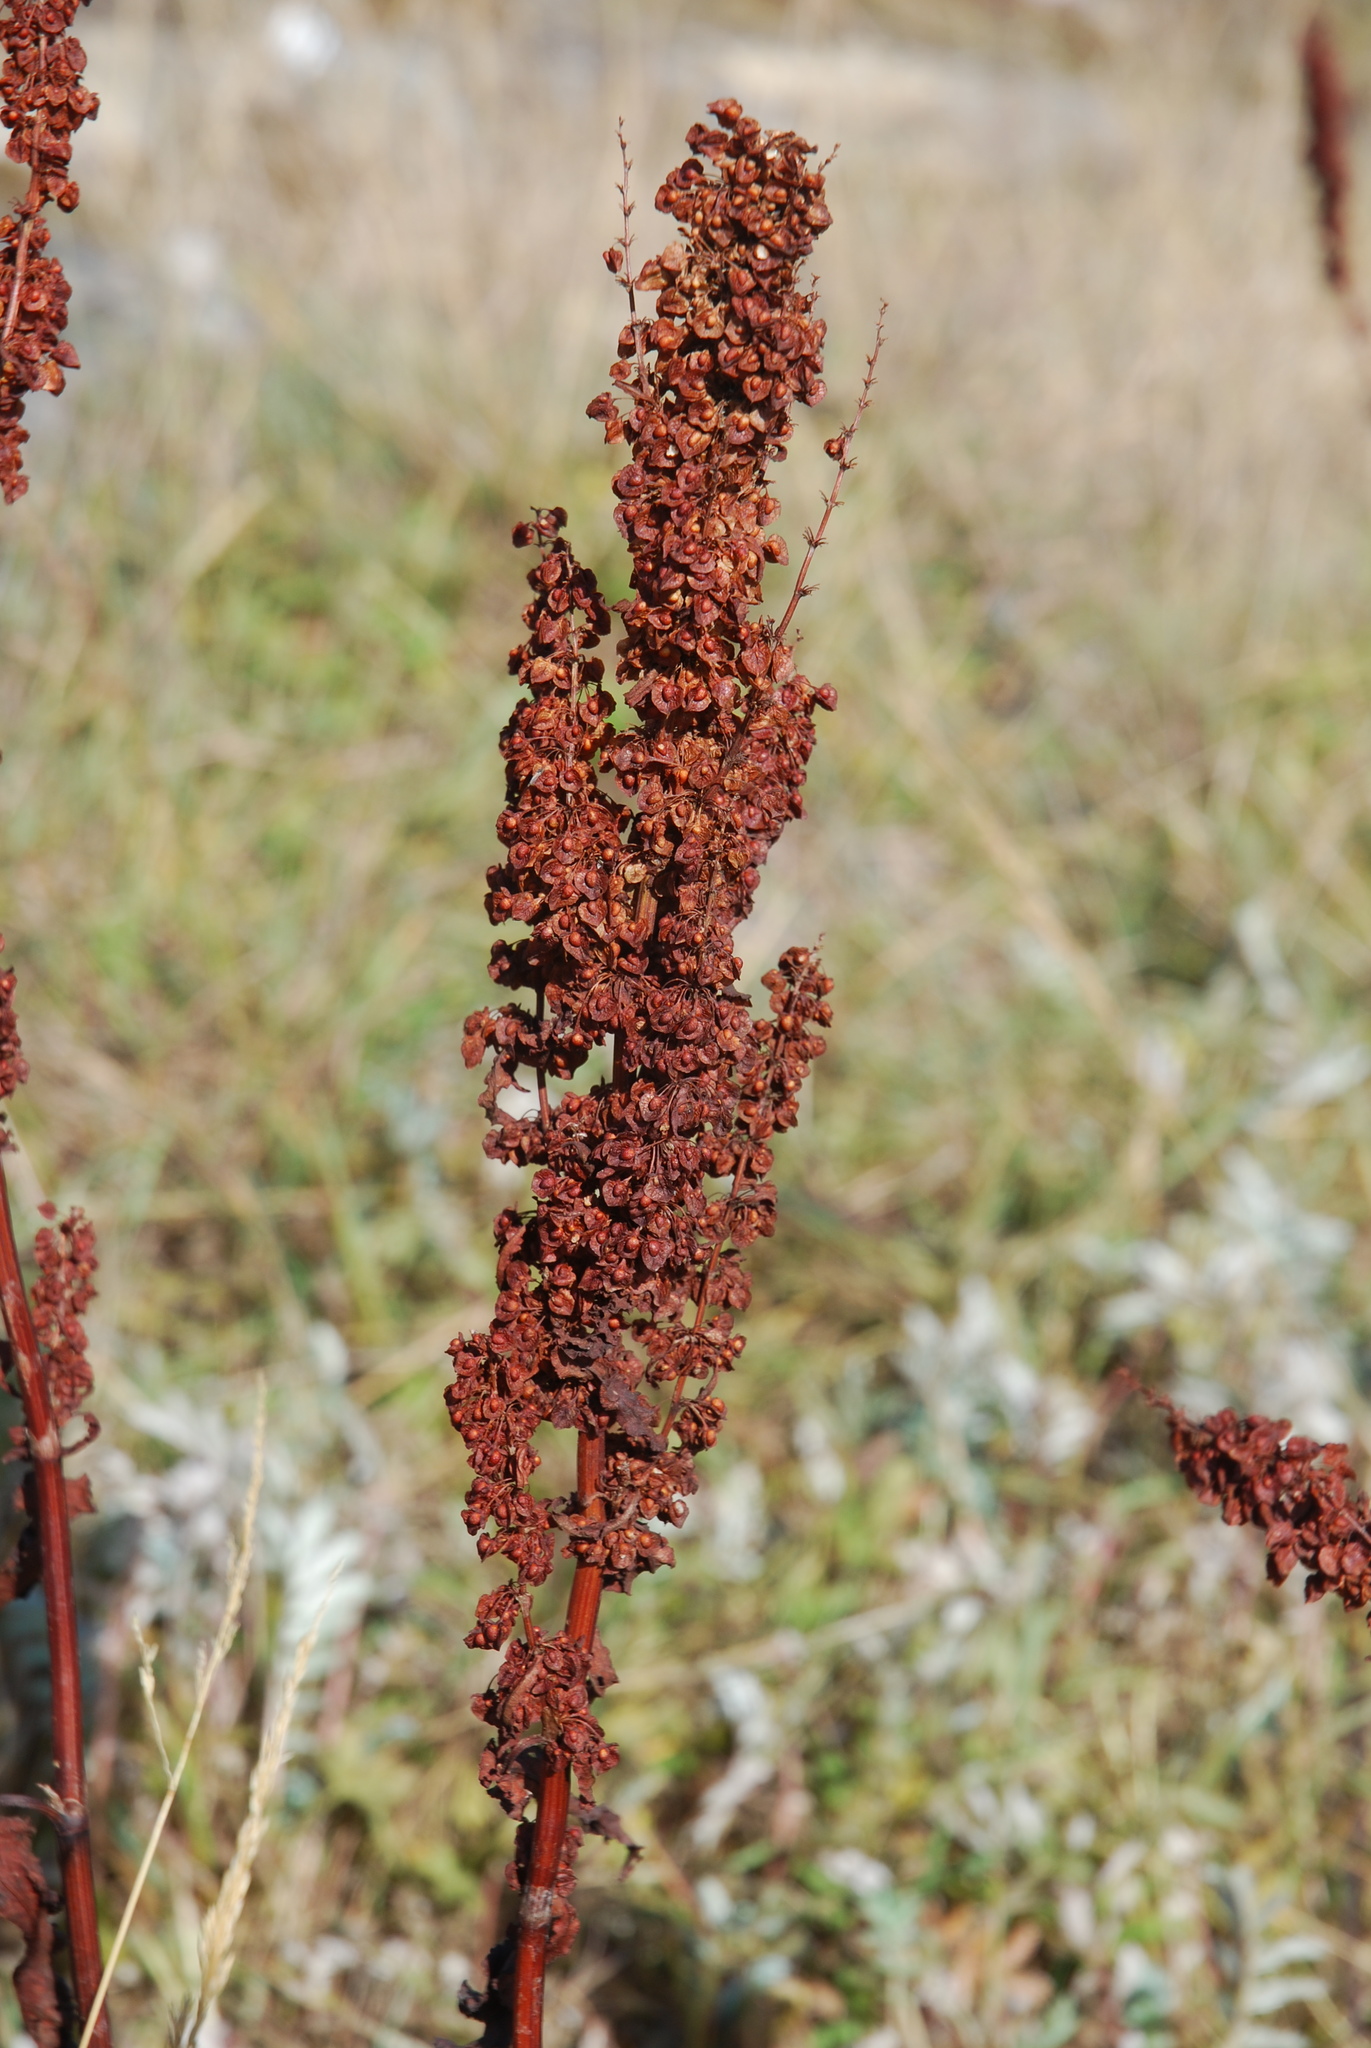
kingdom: Plantae
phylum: Tracheophyta
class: Magnoliopsida
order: Caryophyllales
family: Polygonaceae
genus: Rumex
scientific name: Rumex crispus
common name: Curled dock
